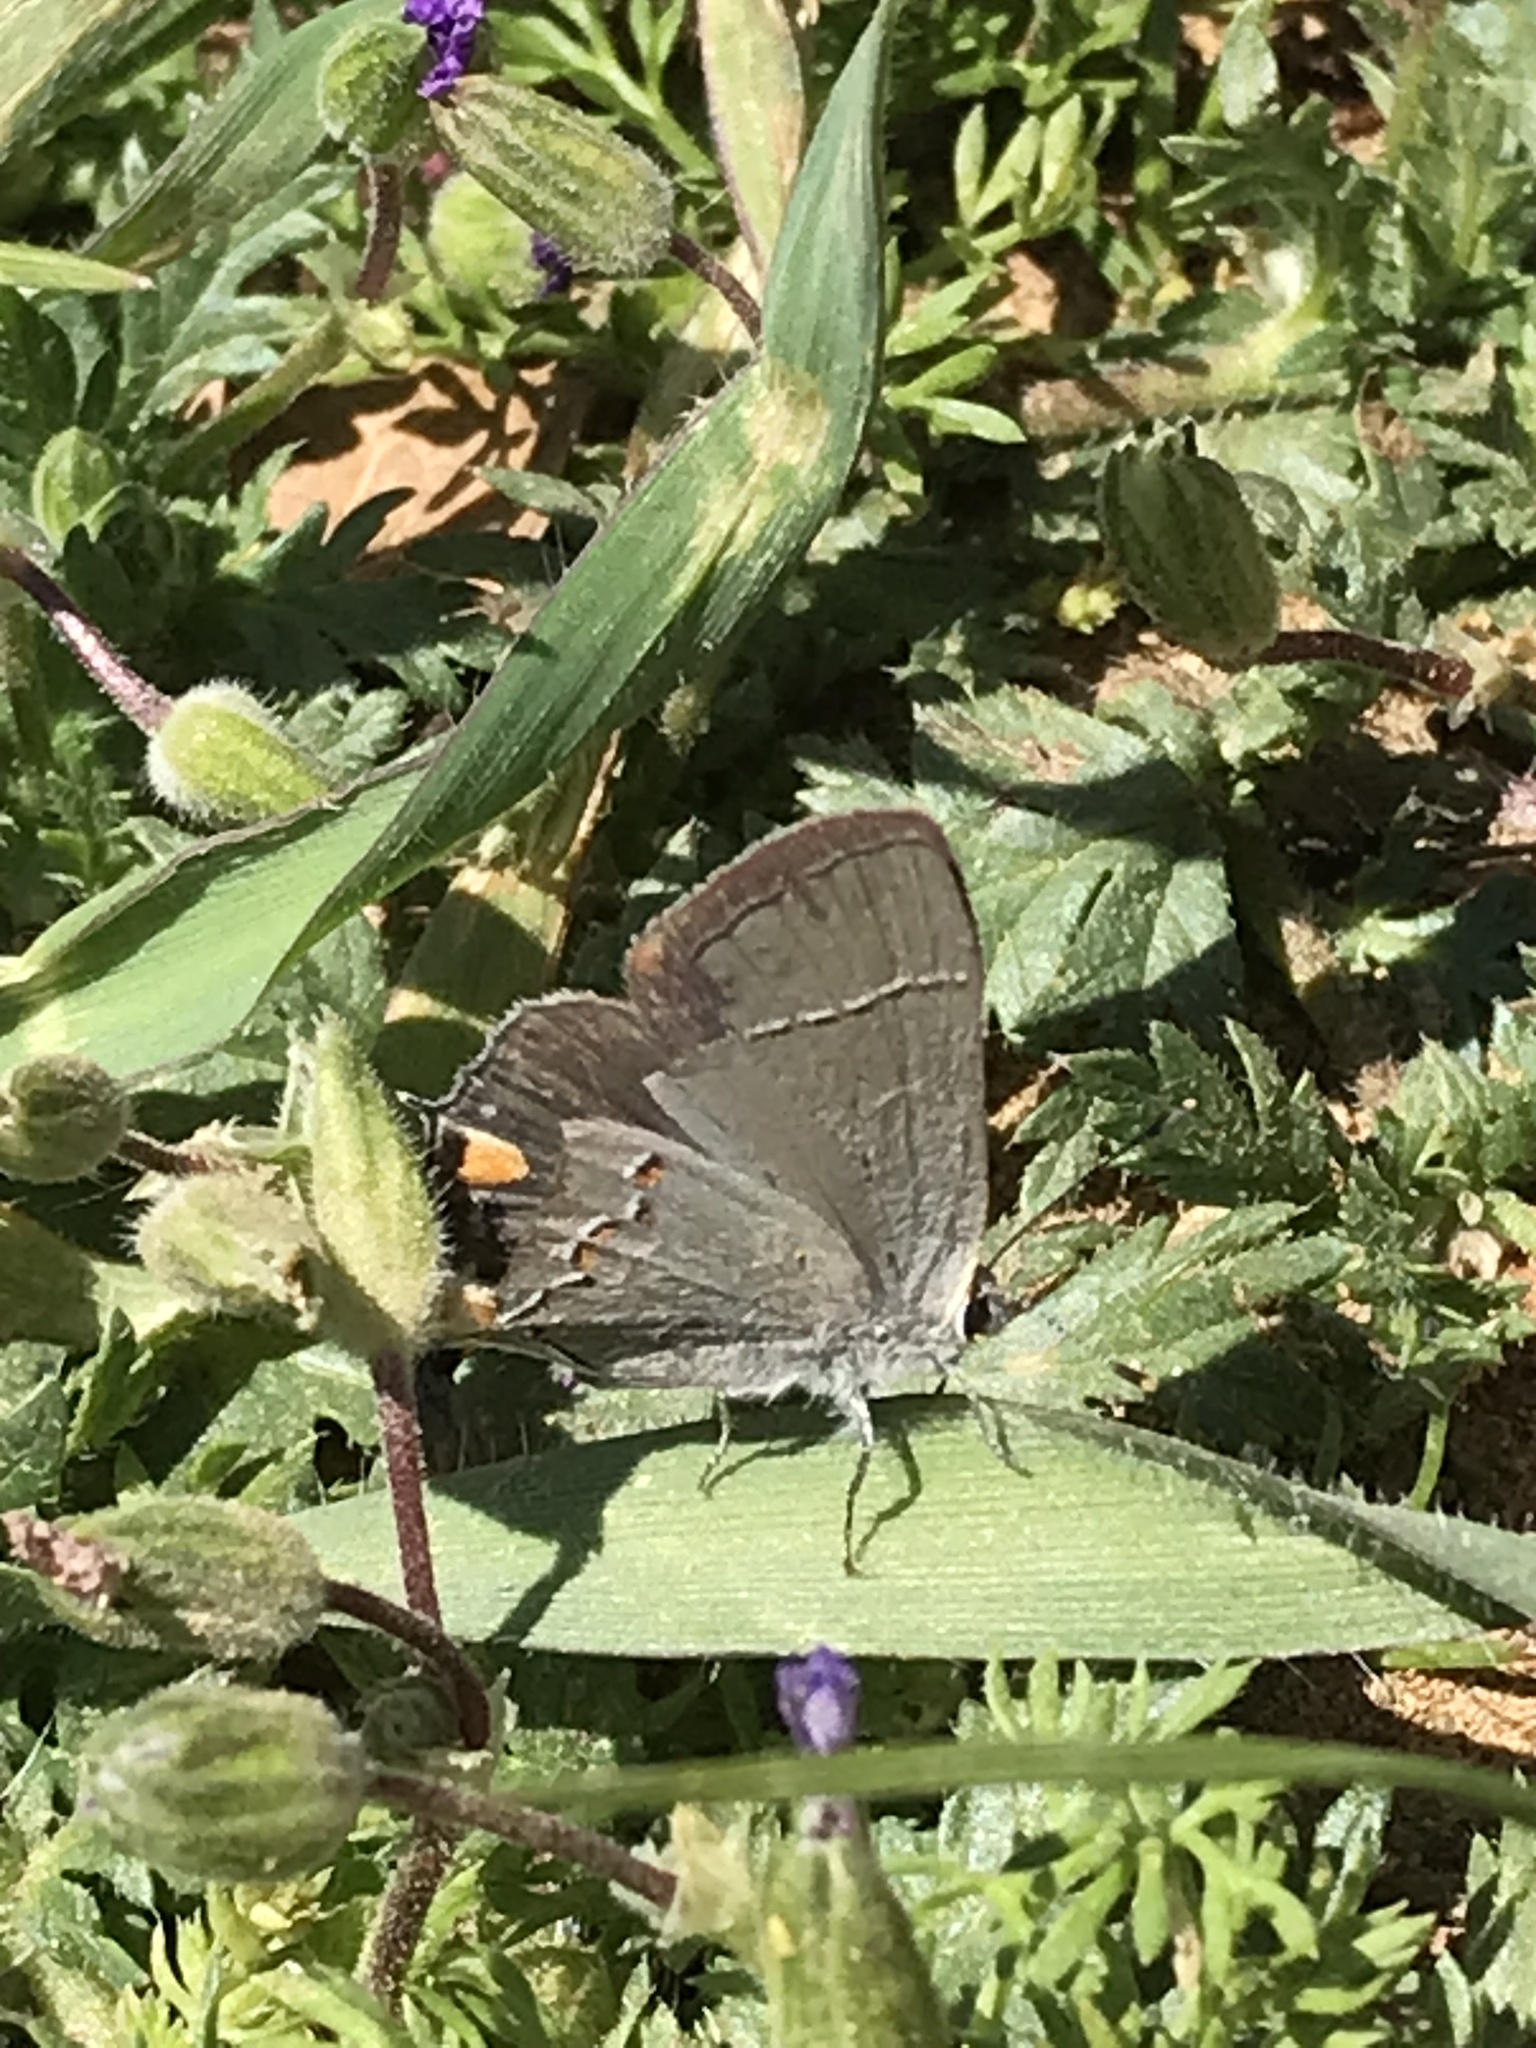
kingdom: Animalia
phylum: Arthropoda
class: Insecta
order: Lepidoptera
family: Lycaenidae
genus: Strymon
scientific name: Strymon melinus
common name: Gray hairstreak
